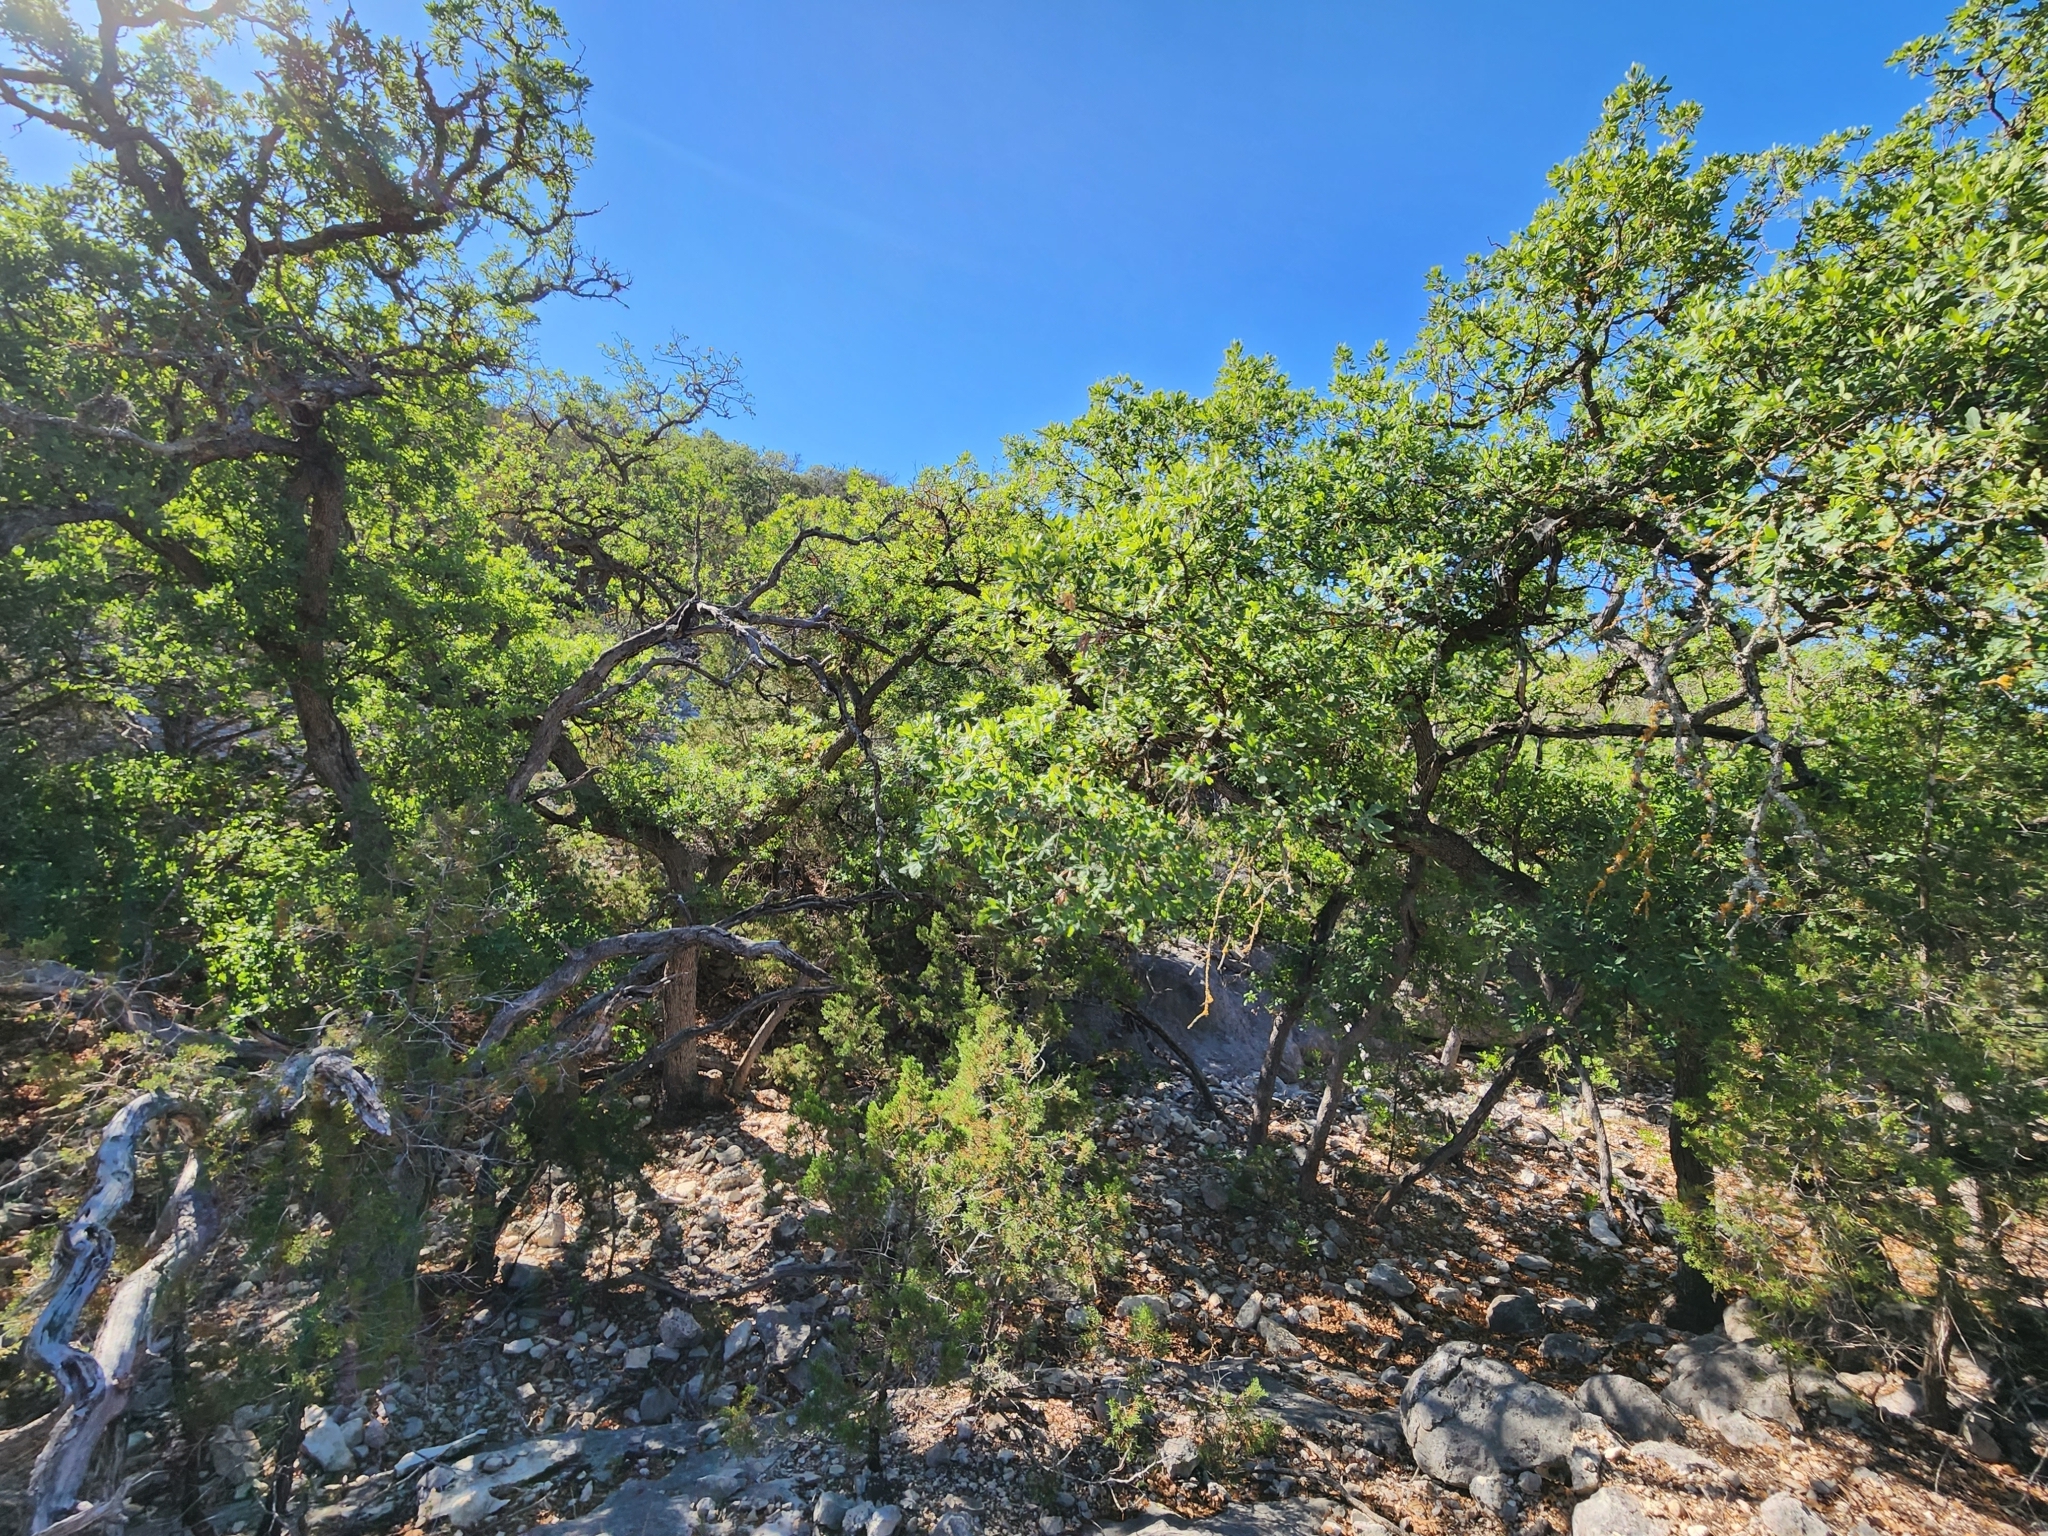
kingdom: Plantae
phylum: Tracheophyta
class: Magnoliopsida
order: Fagales
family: Fagaceae
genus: Quercus
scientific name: Quercus laceyi
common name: Lacey oak
